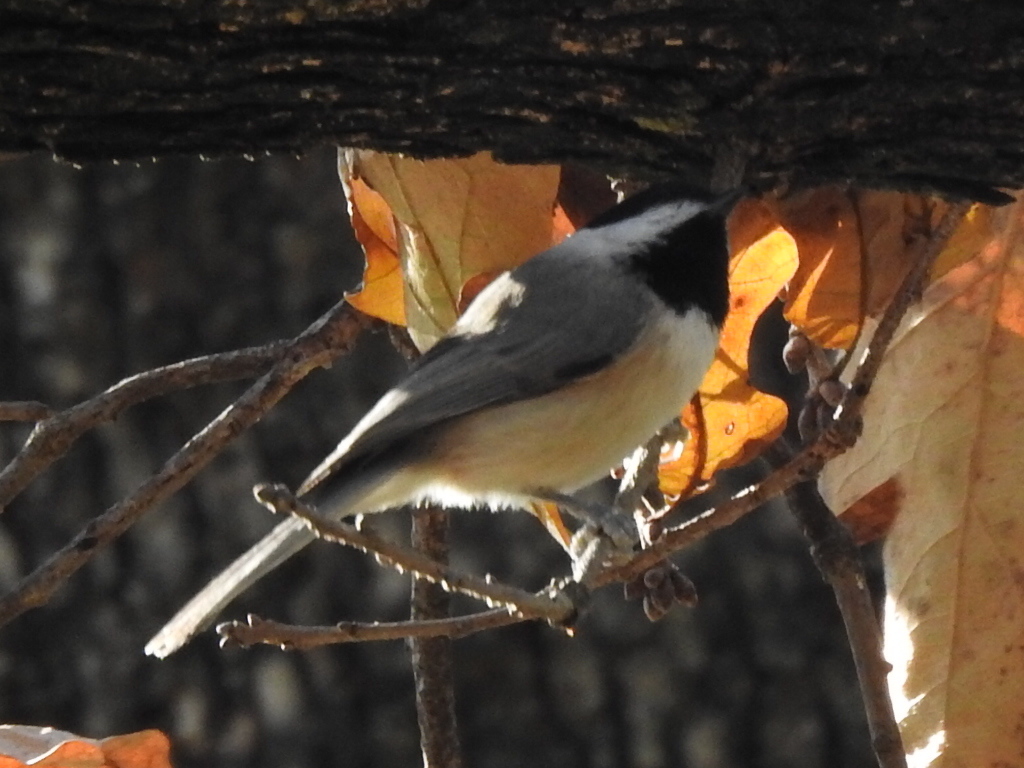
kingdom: Animalia
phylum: Chordata
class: Aves
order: Passeriformes
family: Paridae
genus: Poecile
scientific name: Poecile carolinensis
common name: Carolina chickadee
